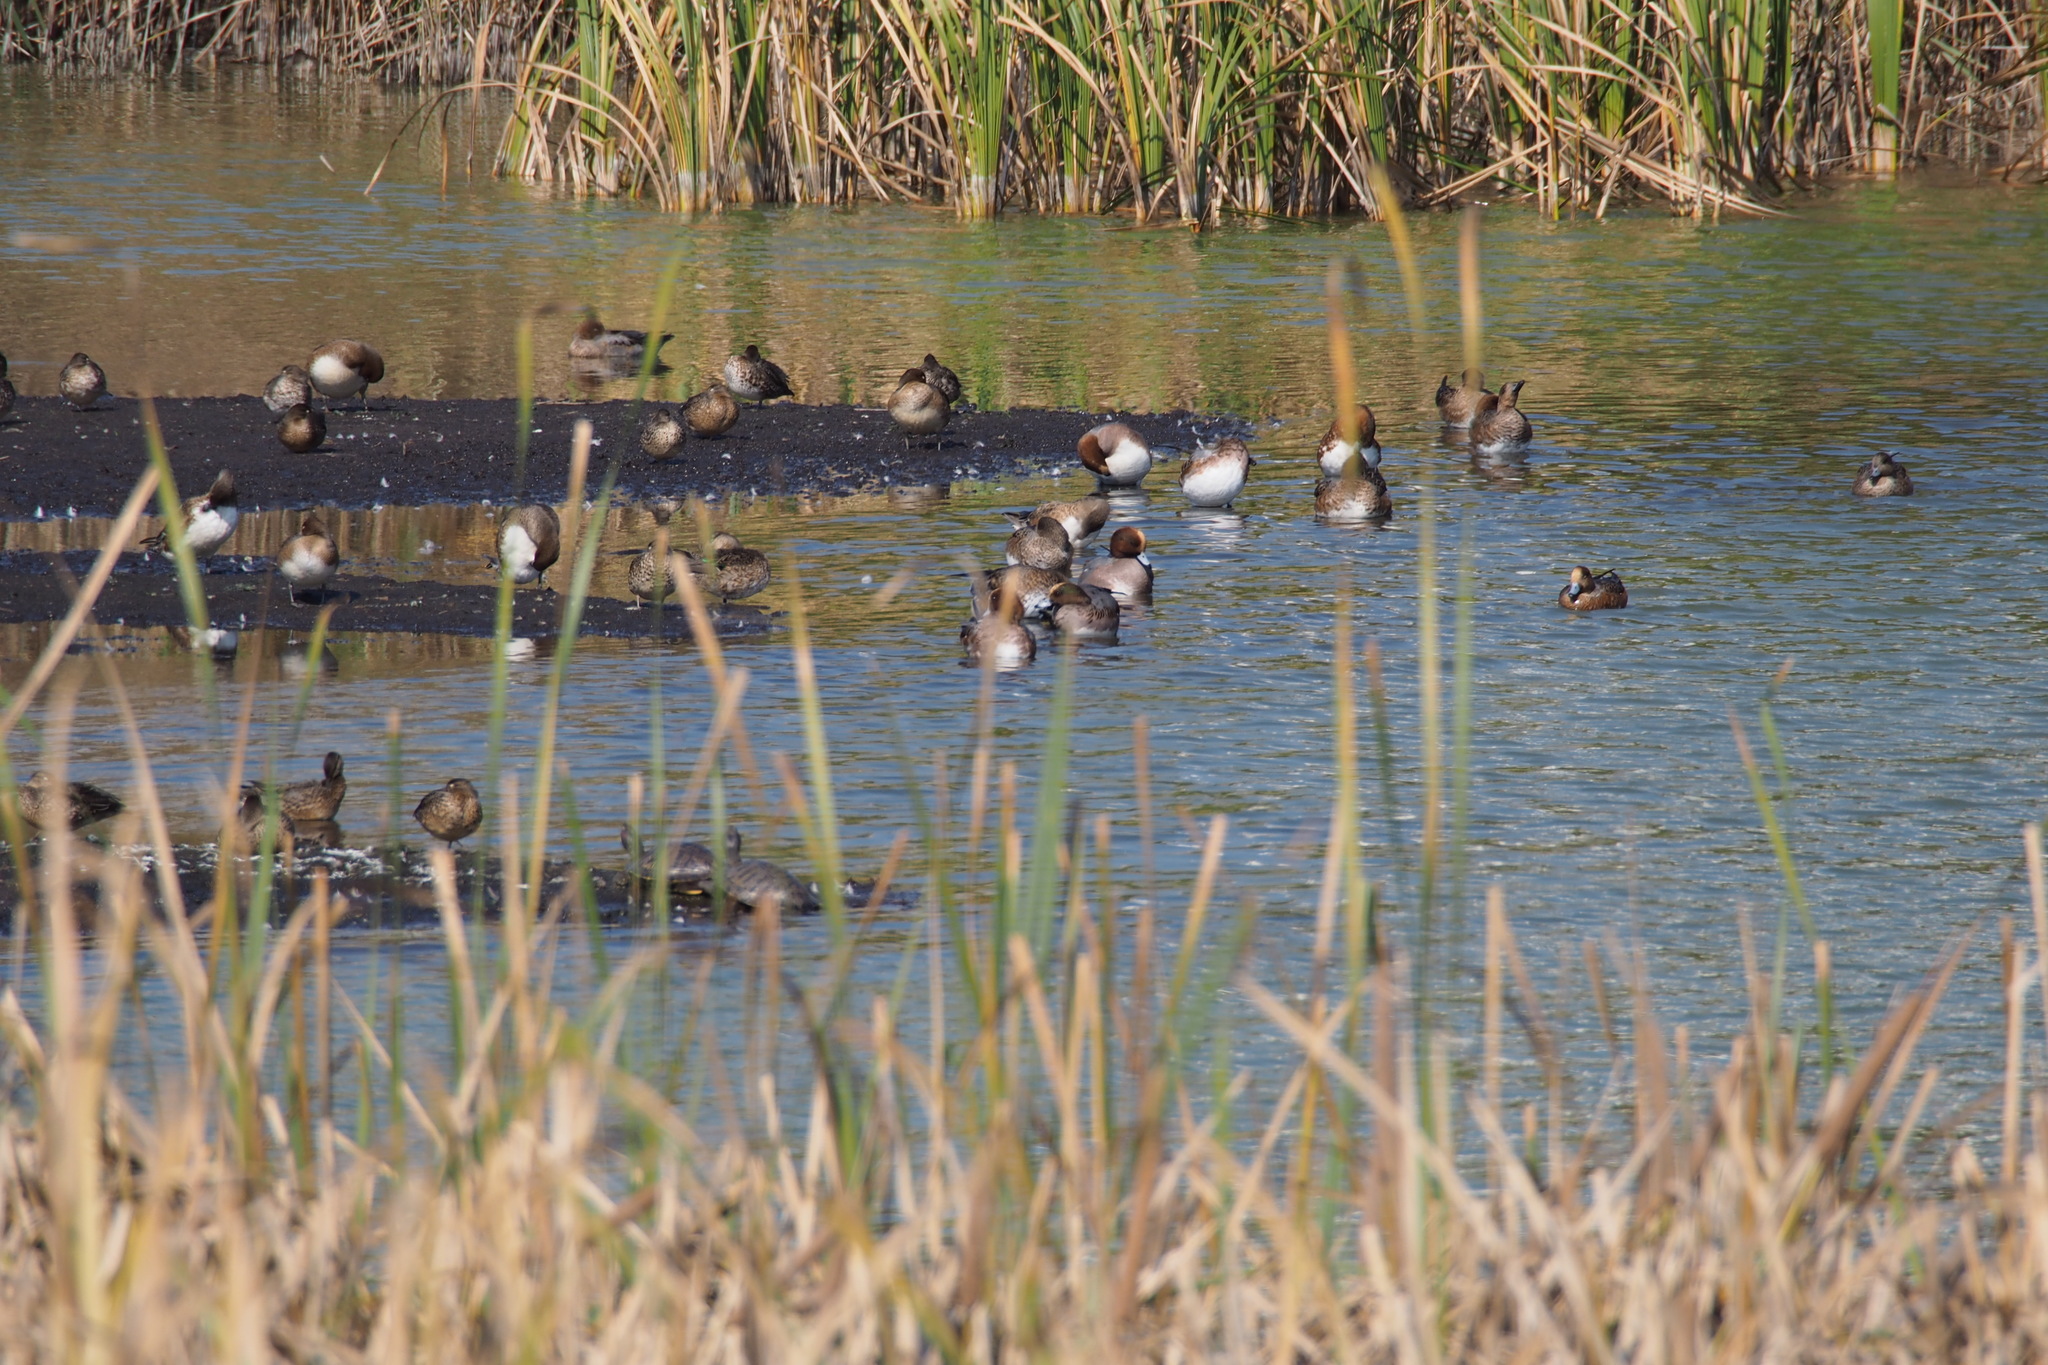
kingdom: Animalia
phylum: Chordata
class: Aves
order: Anseriformes
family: Anatidae
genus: Mareca
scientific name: Mareca penelope
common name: Eurasian wigeon
